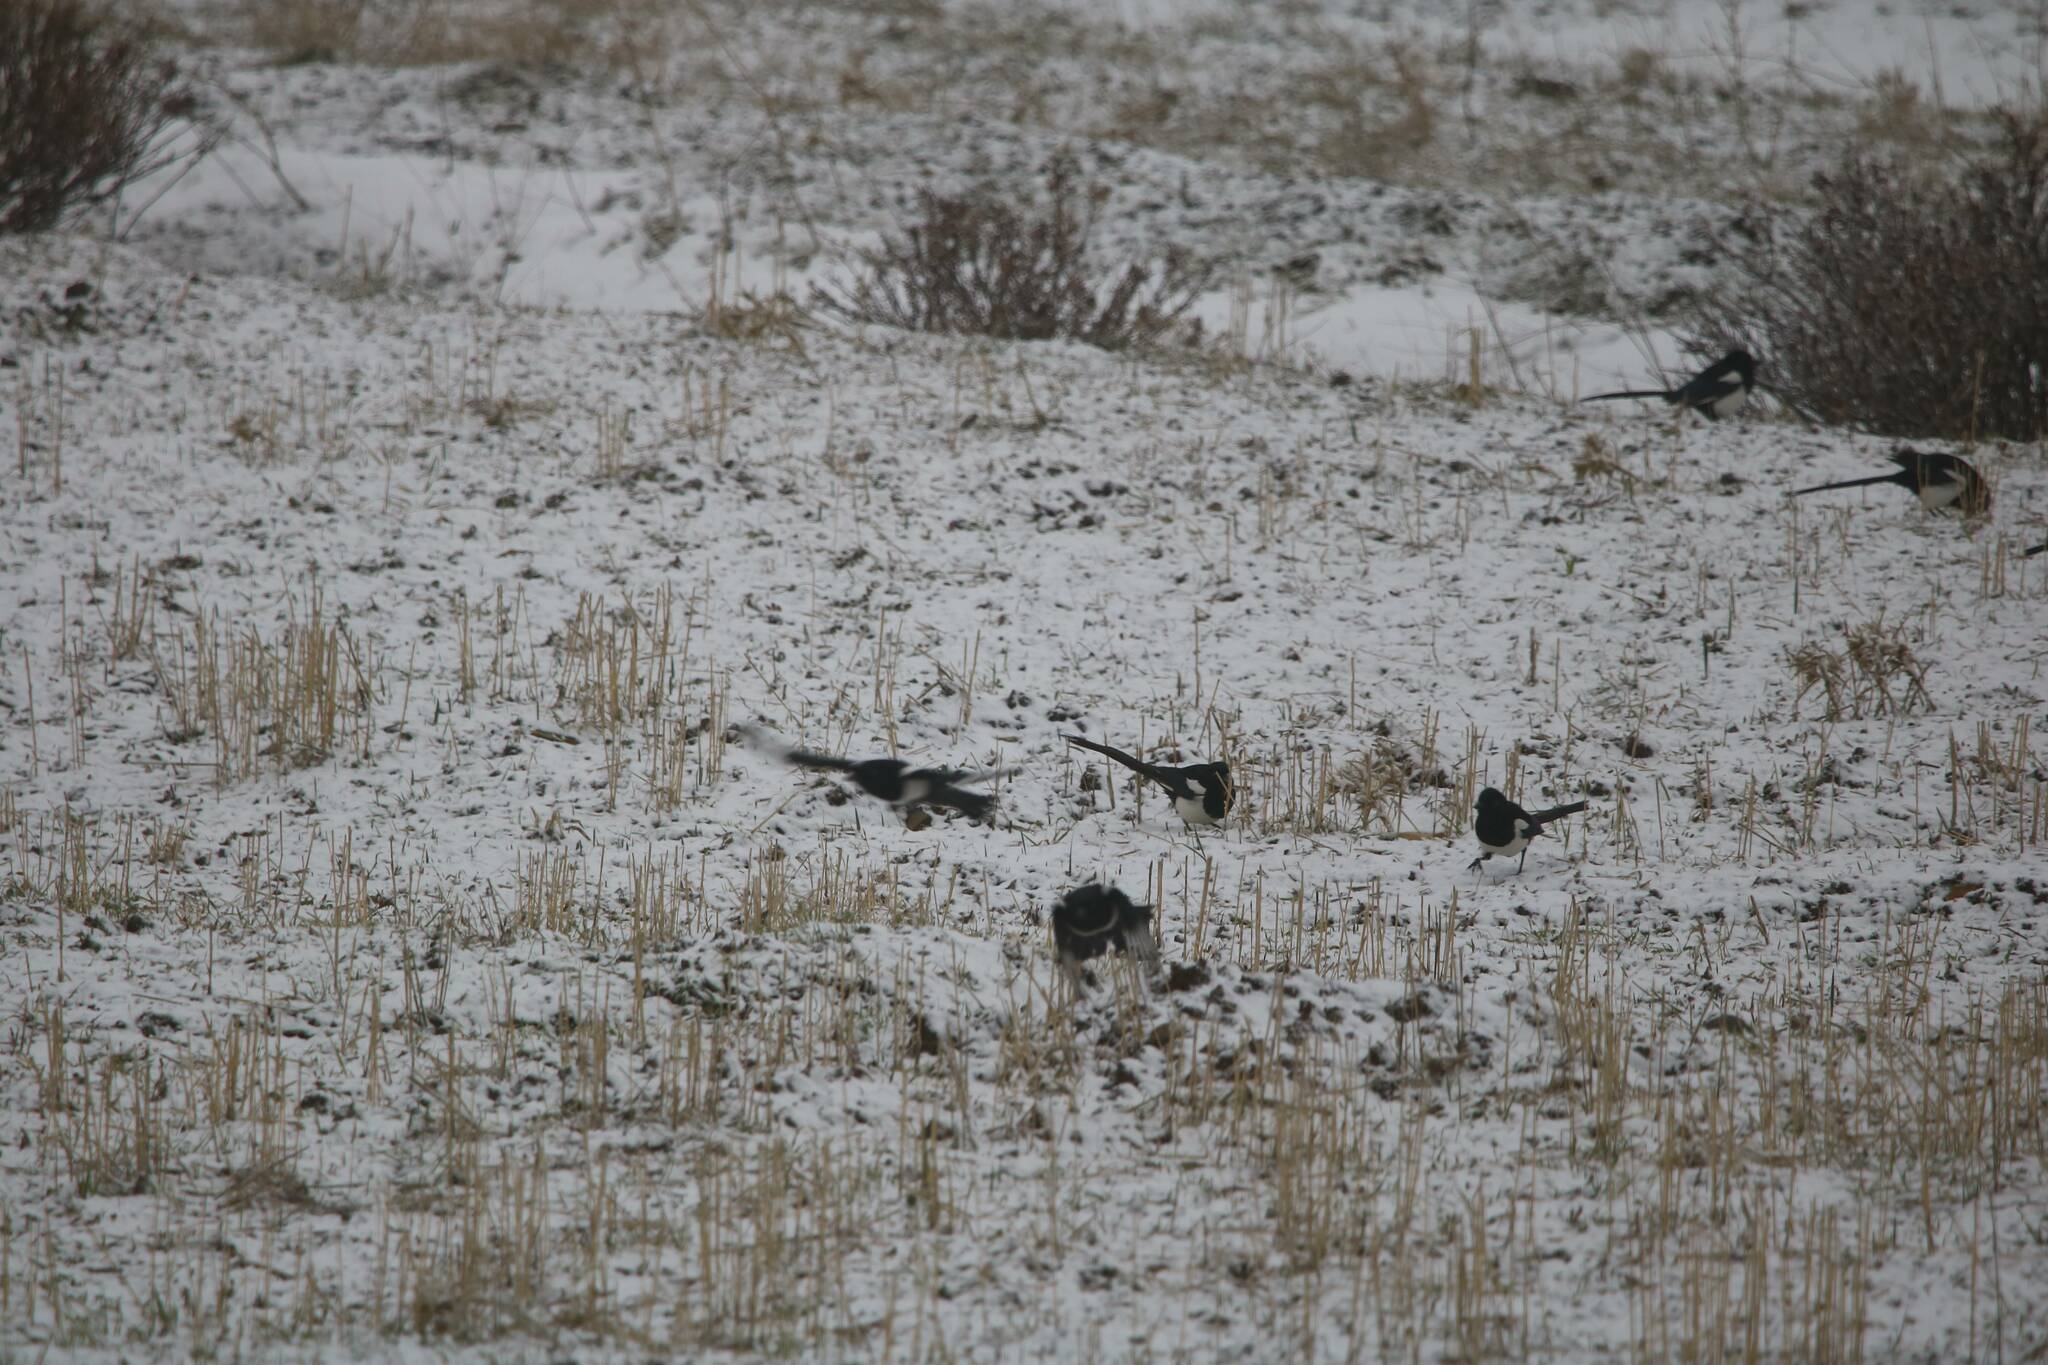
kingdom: Animalia
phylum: Chordata
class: Aves
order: Passeriformes
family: Corvidae
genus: Pica
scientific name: Pica mauritanica
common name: Maghreb magpie
